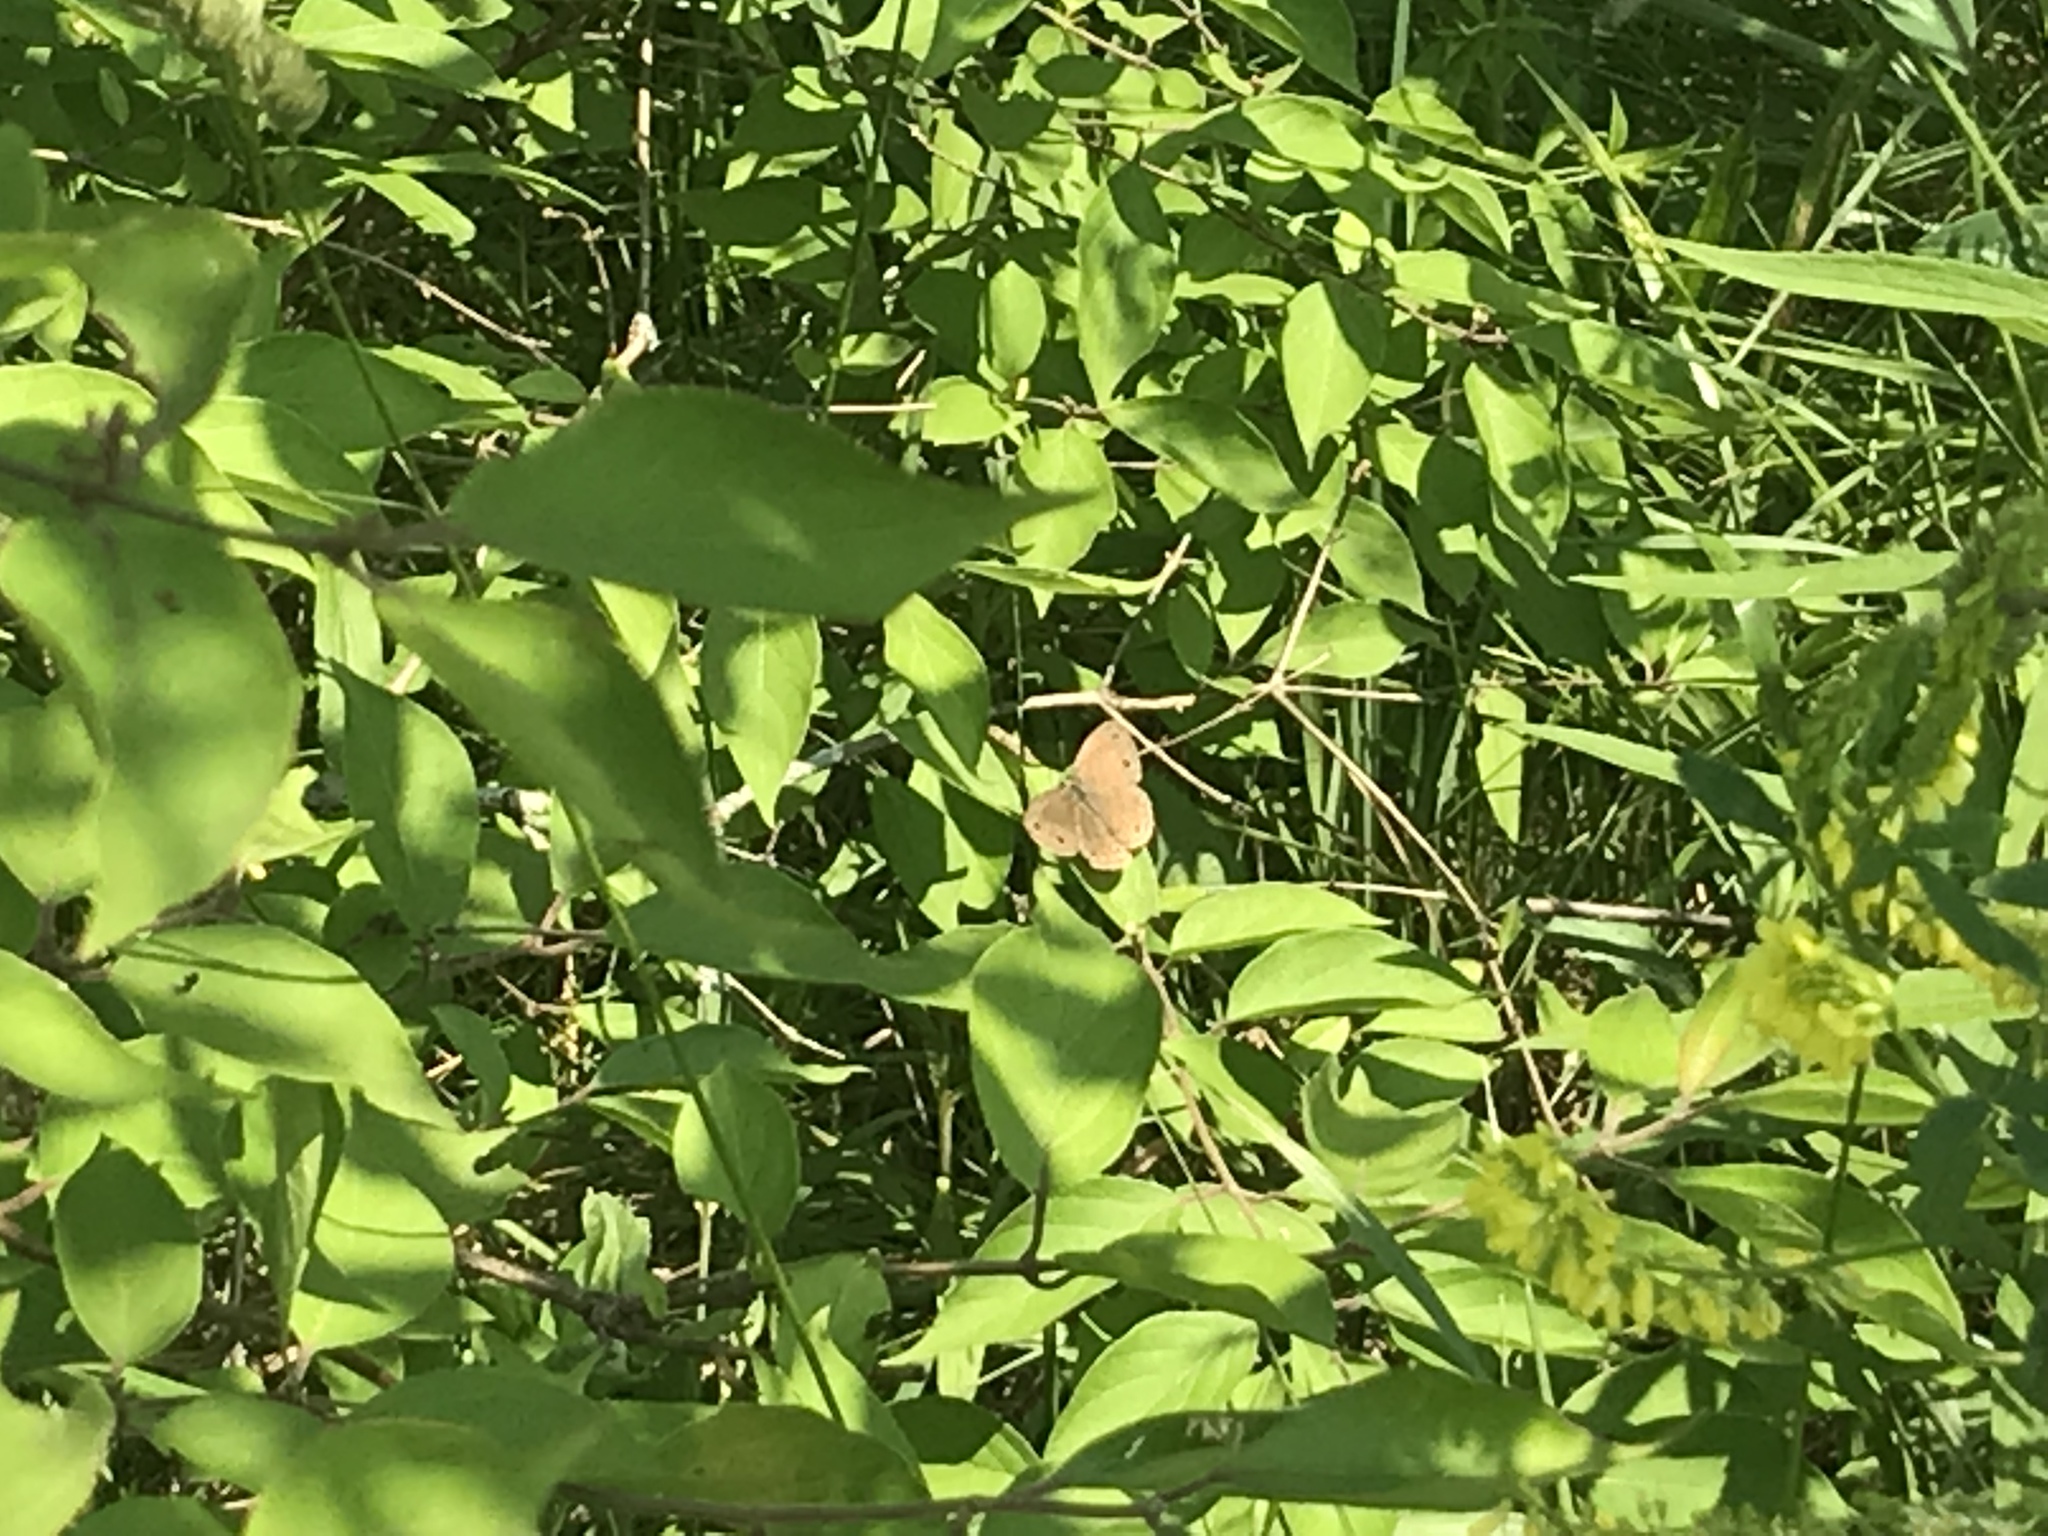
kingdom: Animalia
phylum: Arthropoda
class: Insecta
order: Lepidoptera
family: Nymphalidae
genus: Euptychia
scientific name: Euptychia cymela
